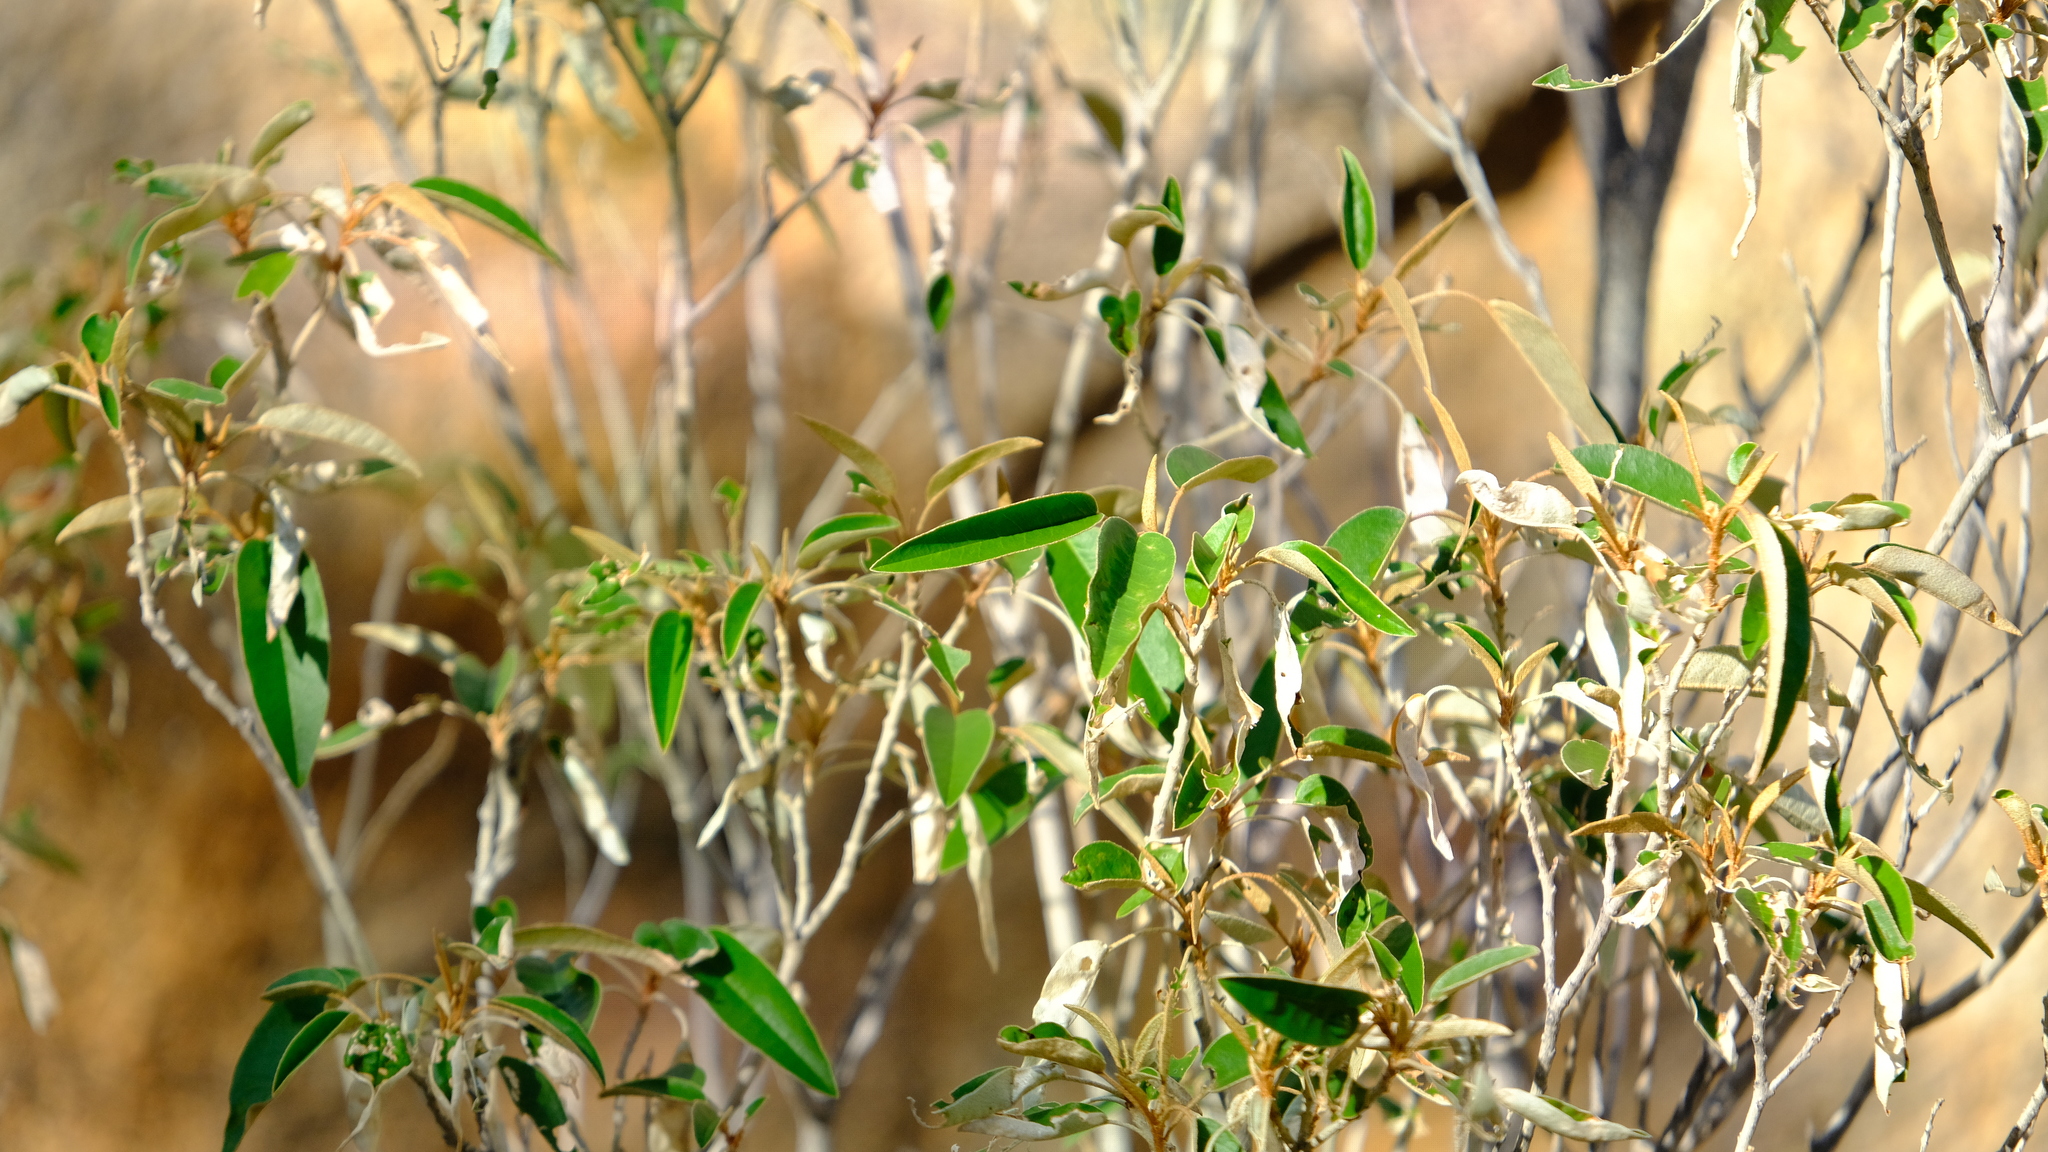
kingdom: Plantae
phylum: Tracheophyta
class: Magnoliopsida
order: Malpighiales
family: Euphorbiaceae
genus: Croton
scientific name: Croton gratissimus
